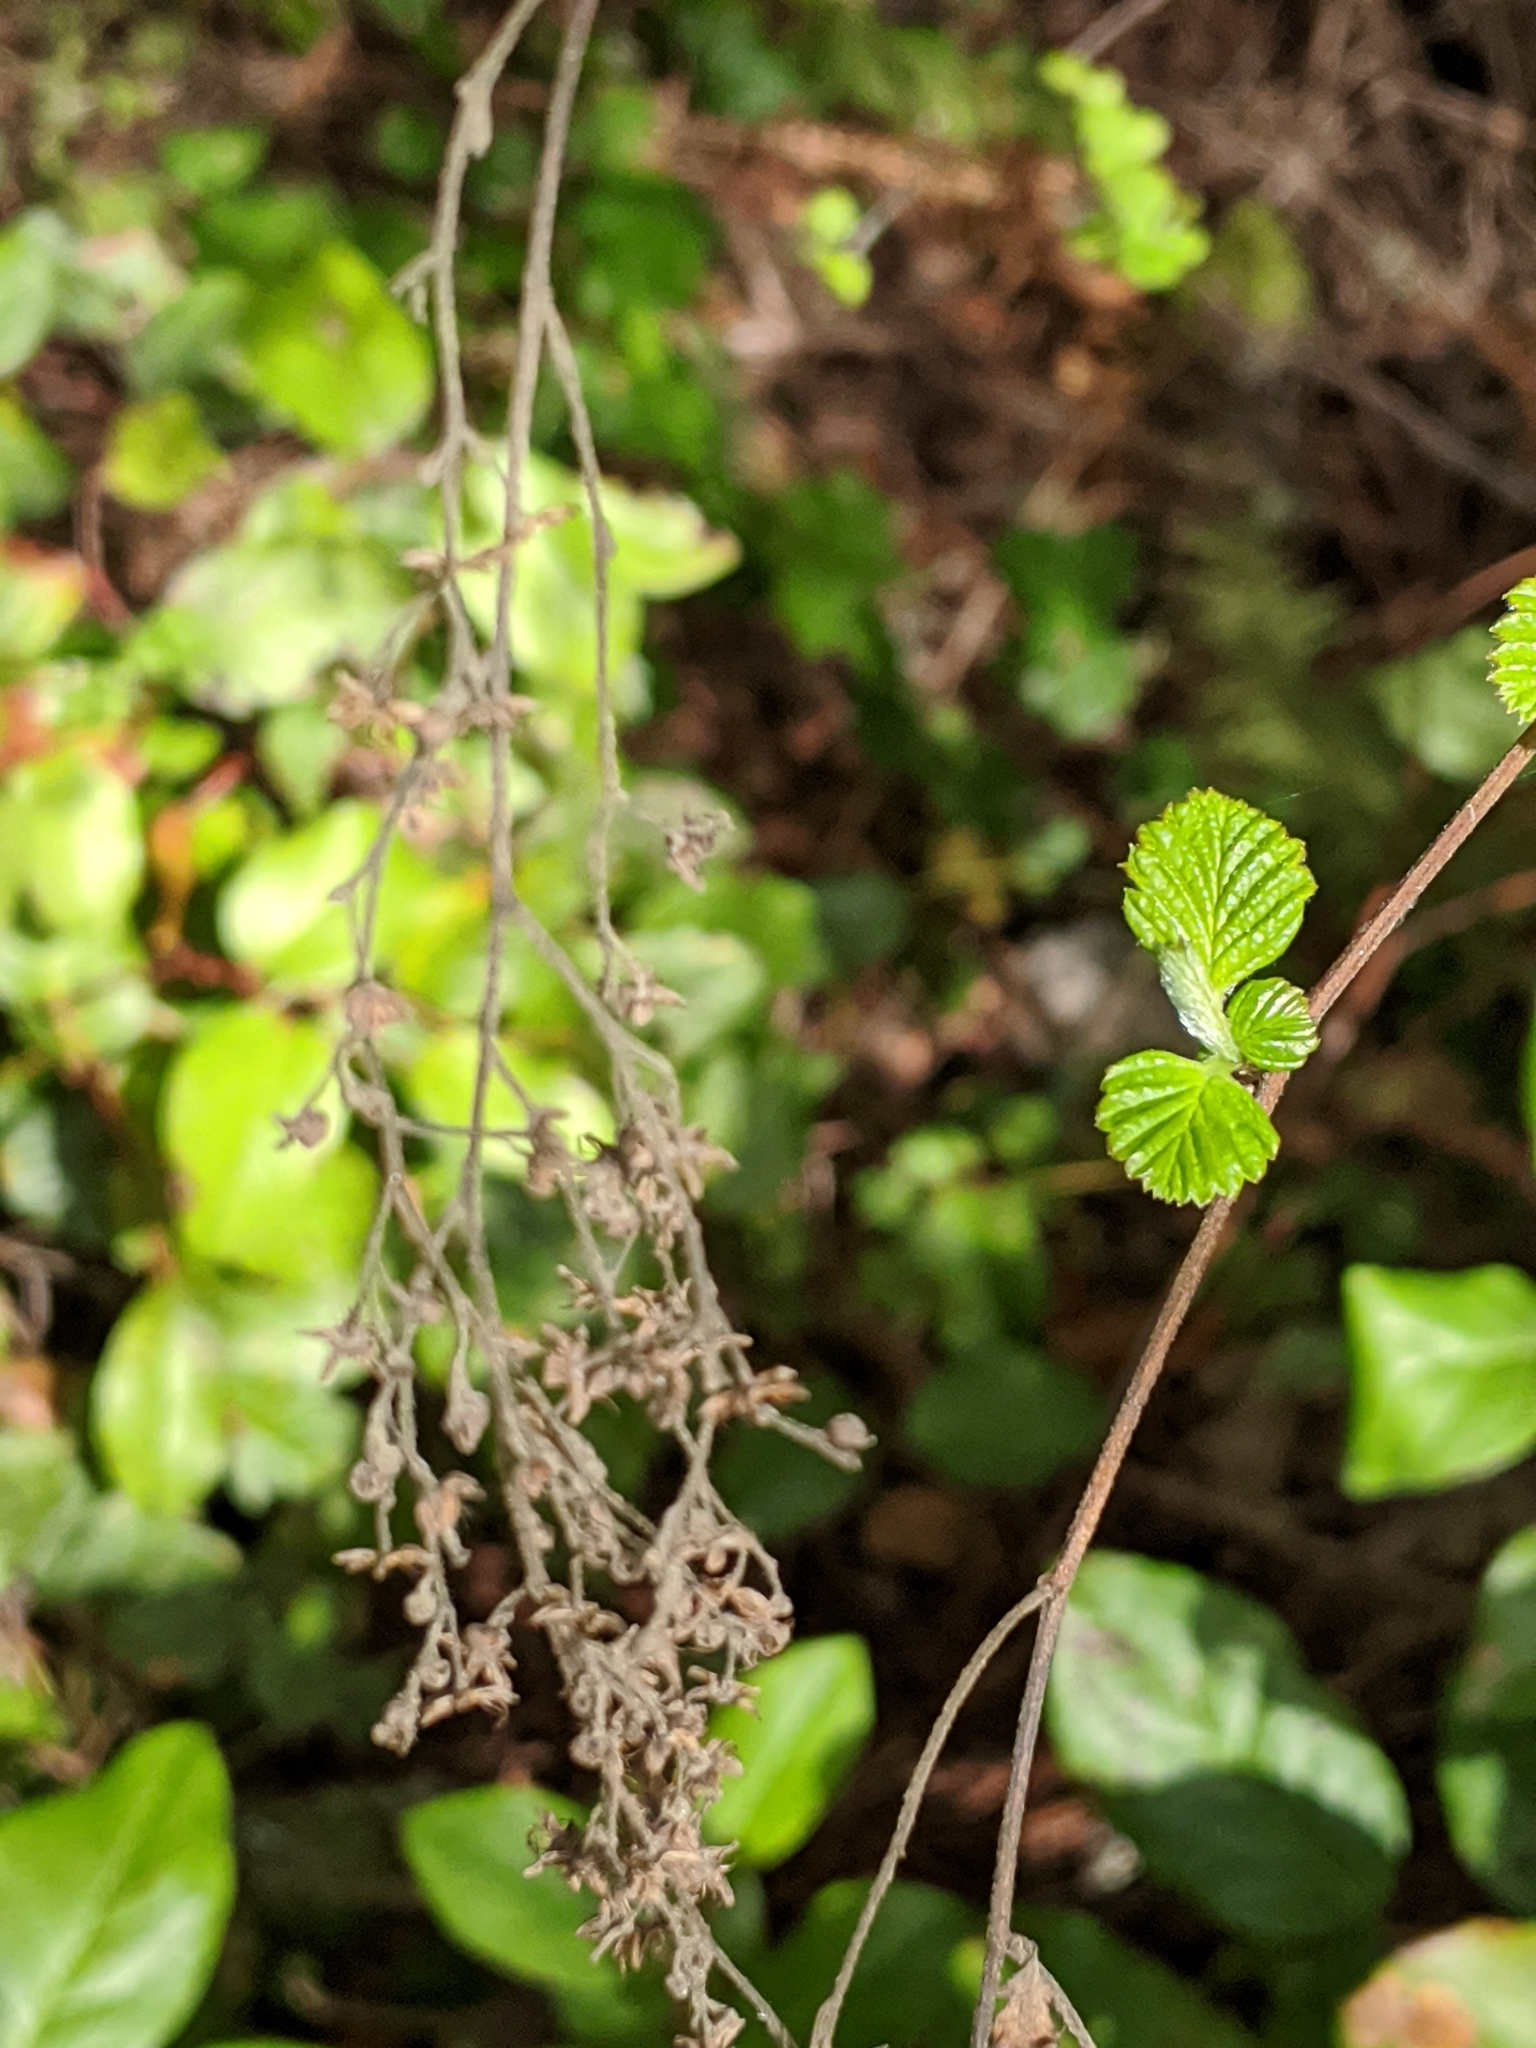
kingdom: Plantae
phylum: Tracheophyta
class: Magnoliopsida
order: Rosales
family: Rosaceae
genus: Holodiscus
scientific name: Holodiscus discolor
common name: Oceanspray
